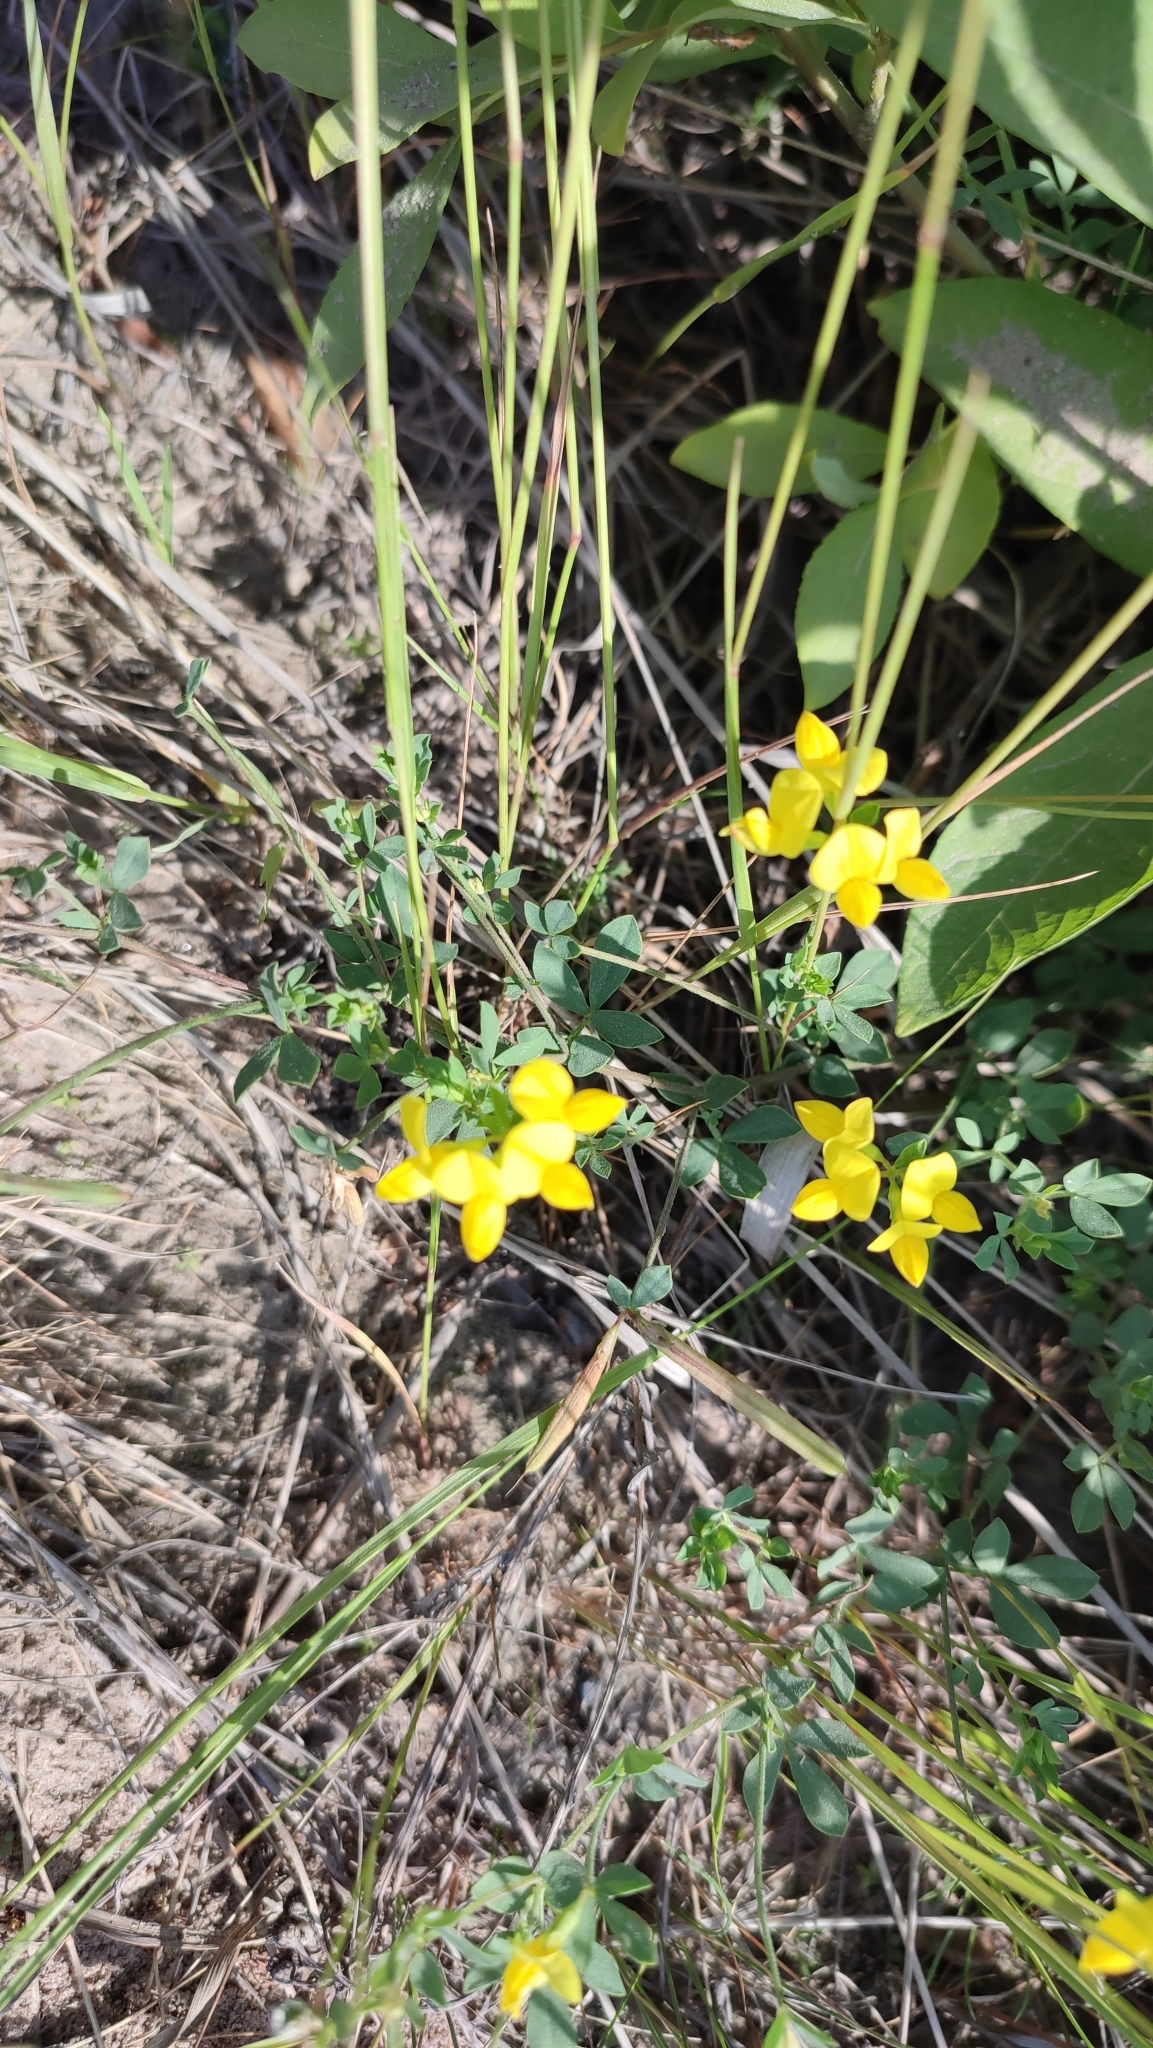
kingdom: Plantae
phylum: Tracheophyta
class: Magnoliopsida
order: Fabales
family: Fabaceae
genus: Lotus
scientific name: Lotus ucrainicus
